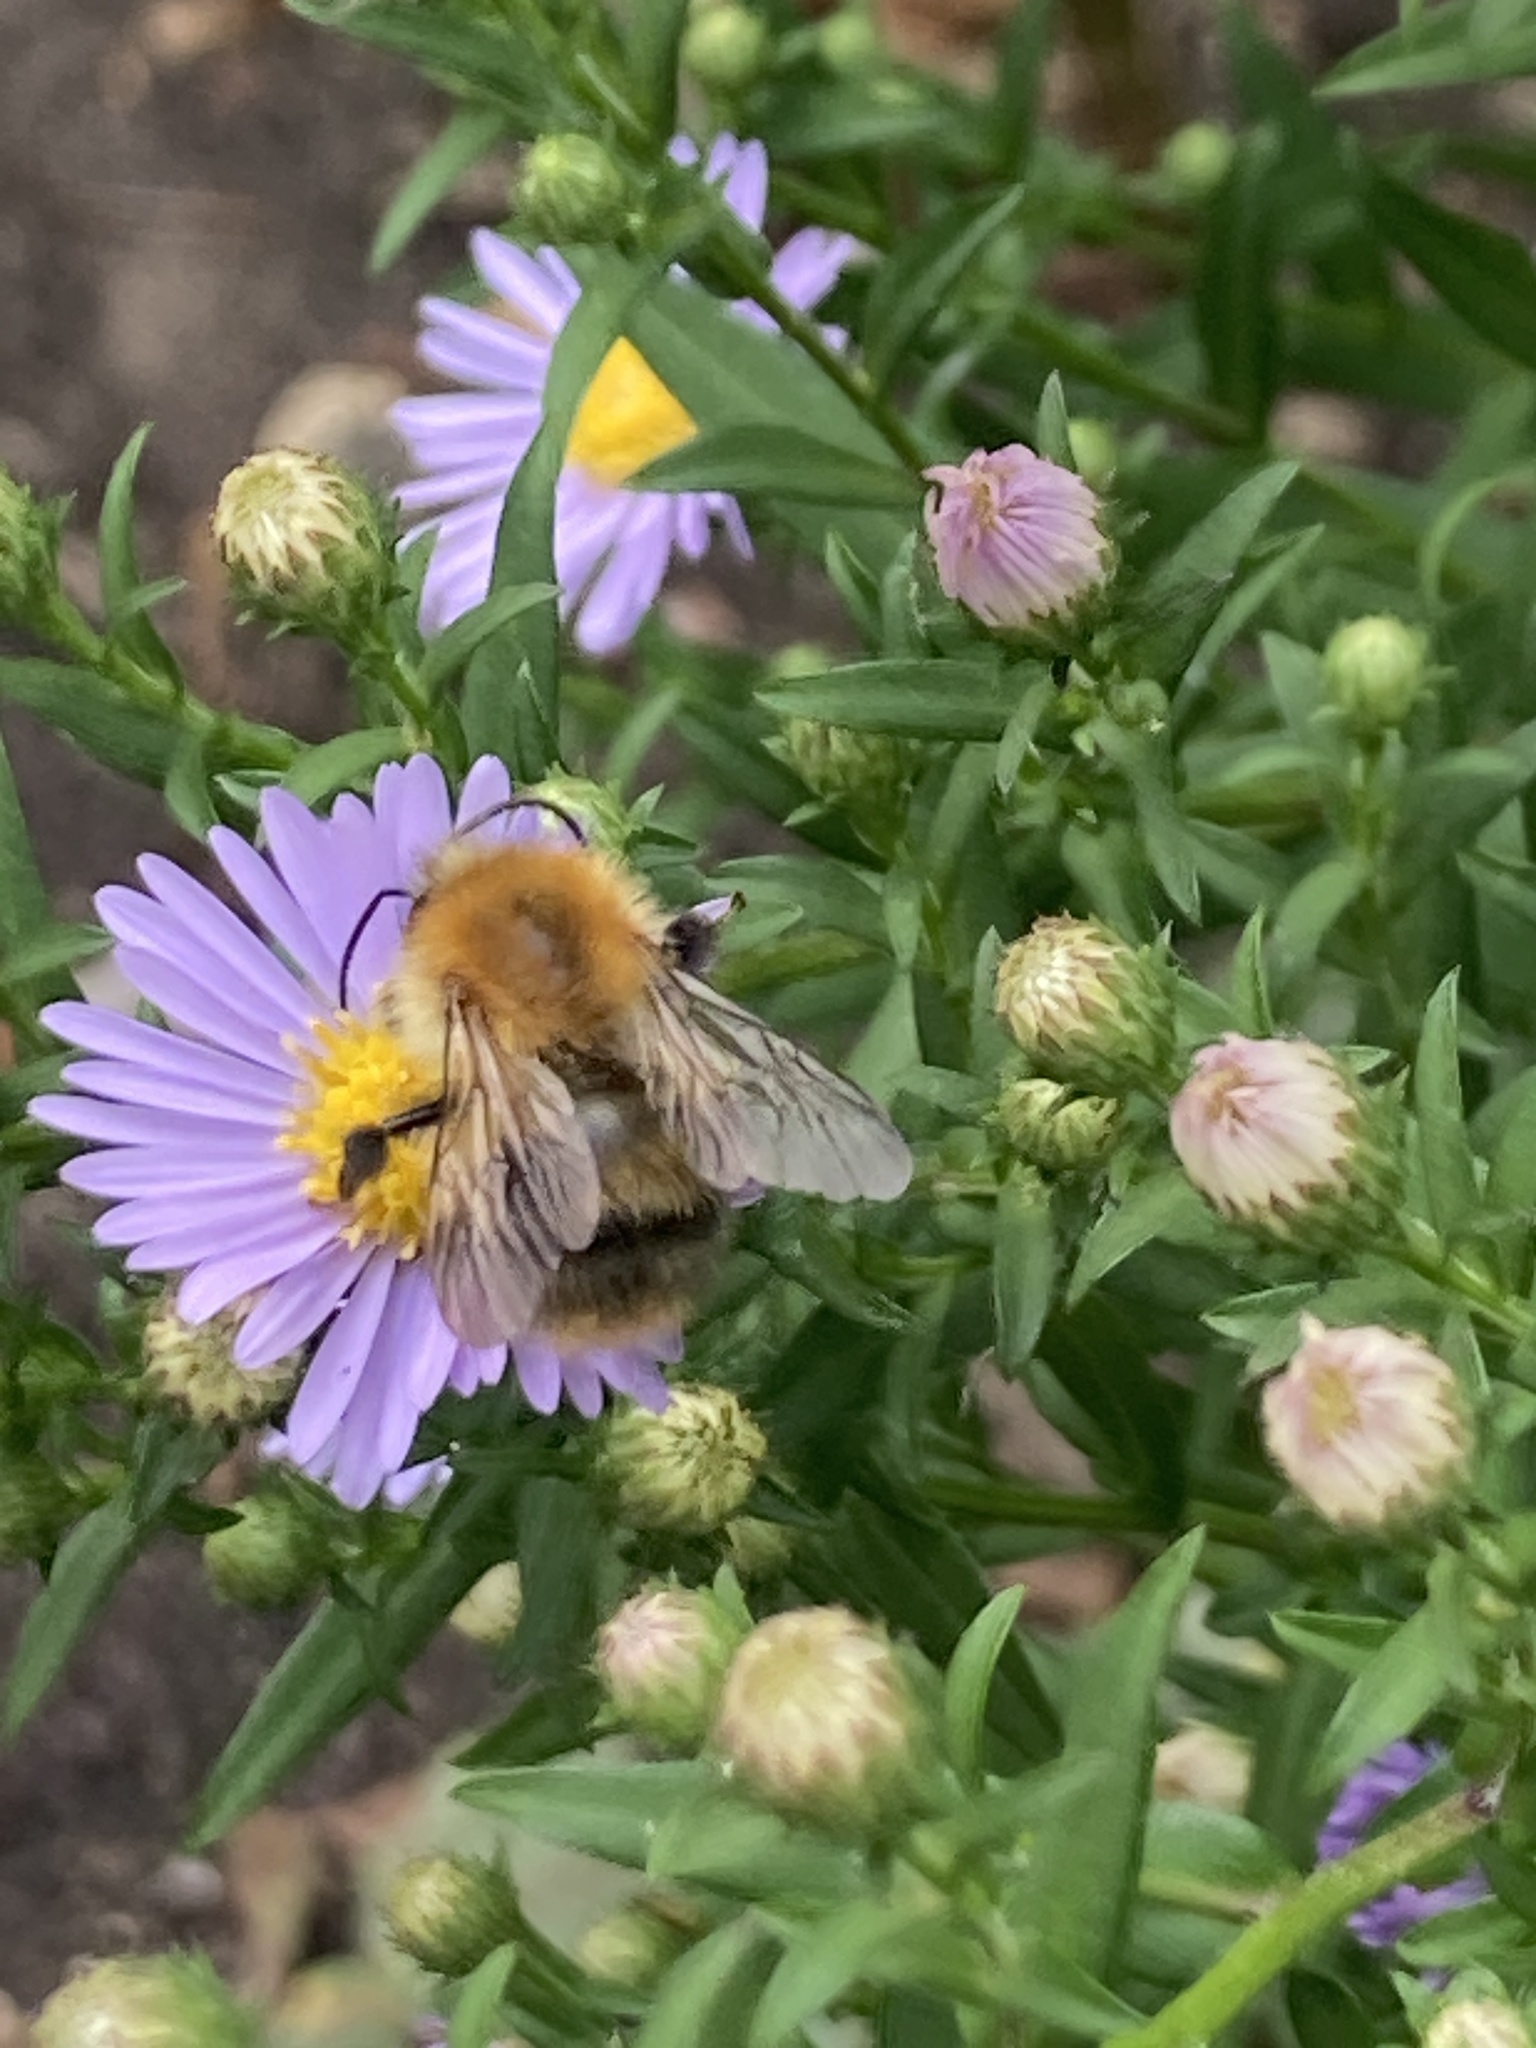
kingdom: Animalia
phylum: Arthropoda
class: Insecta
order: Hymenoptera
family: Apidae
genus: Bombus
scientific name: Bombus pascuorum
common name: Common carder bee
